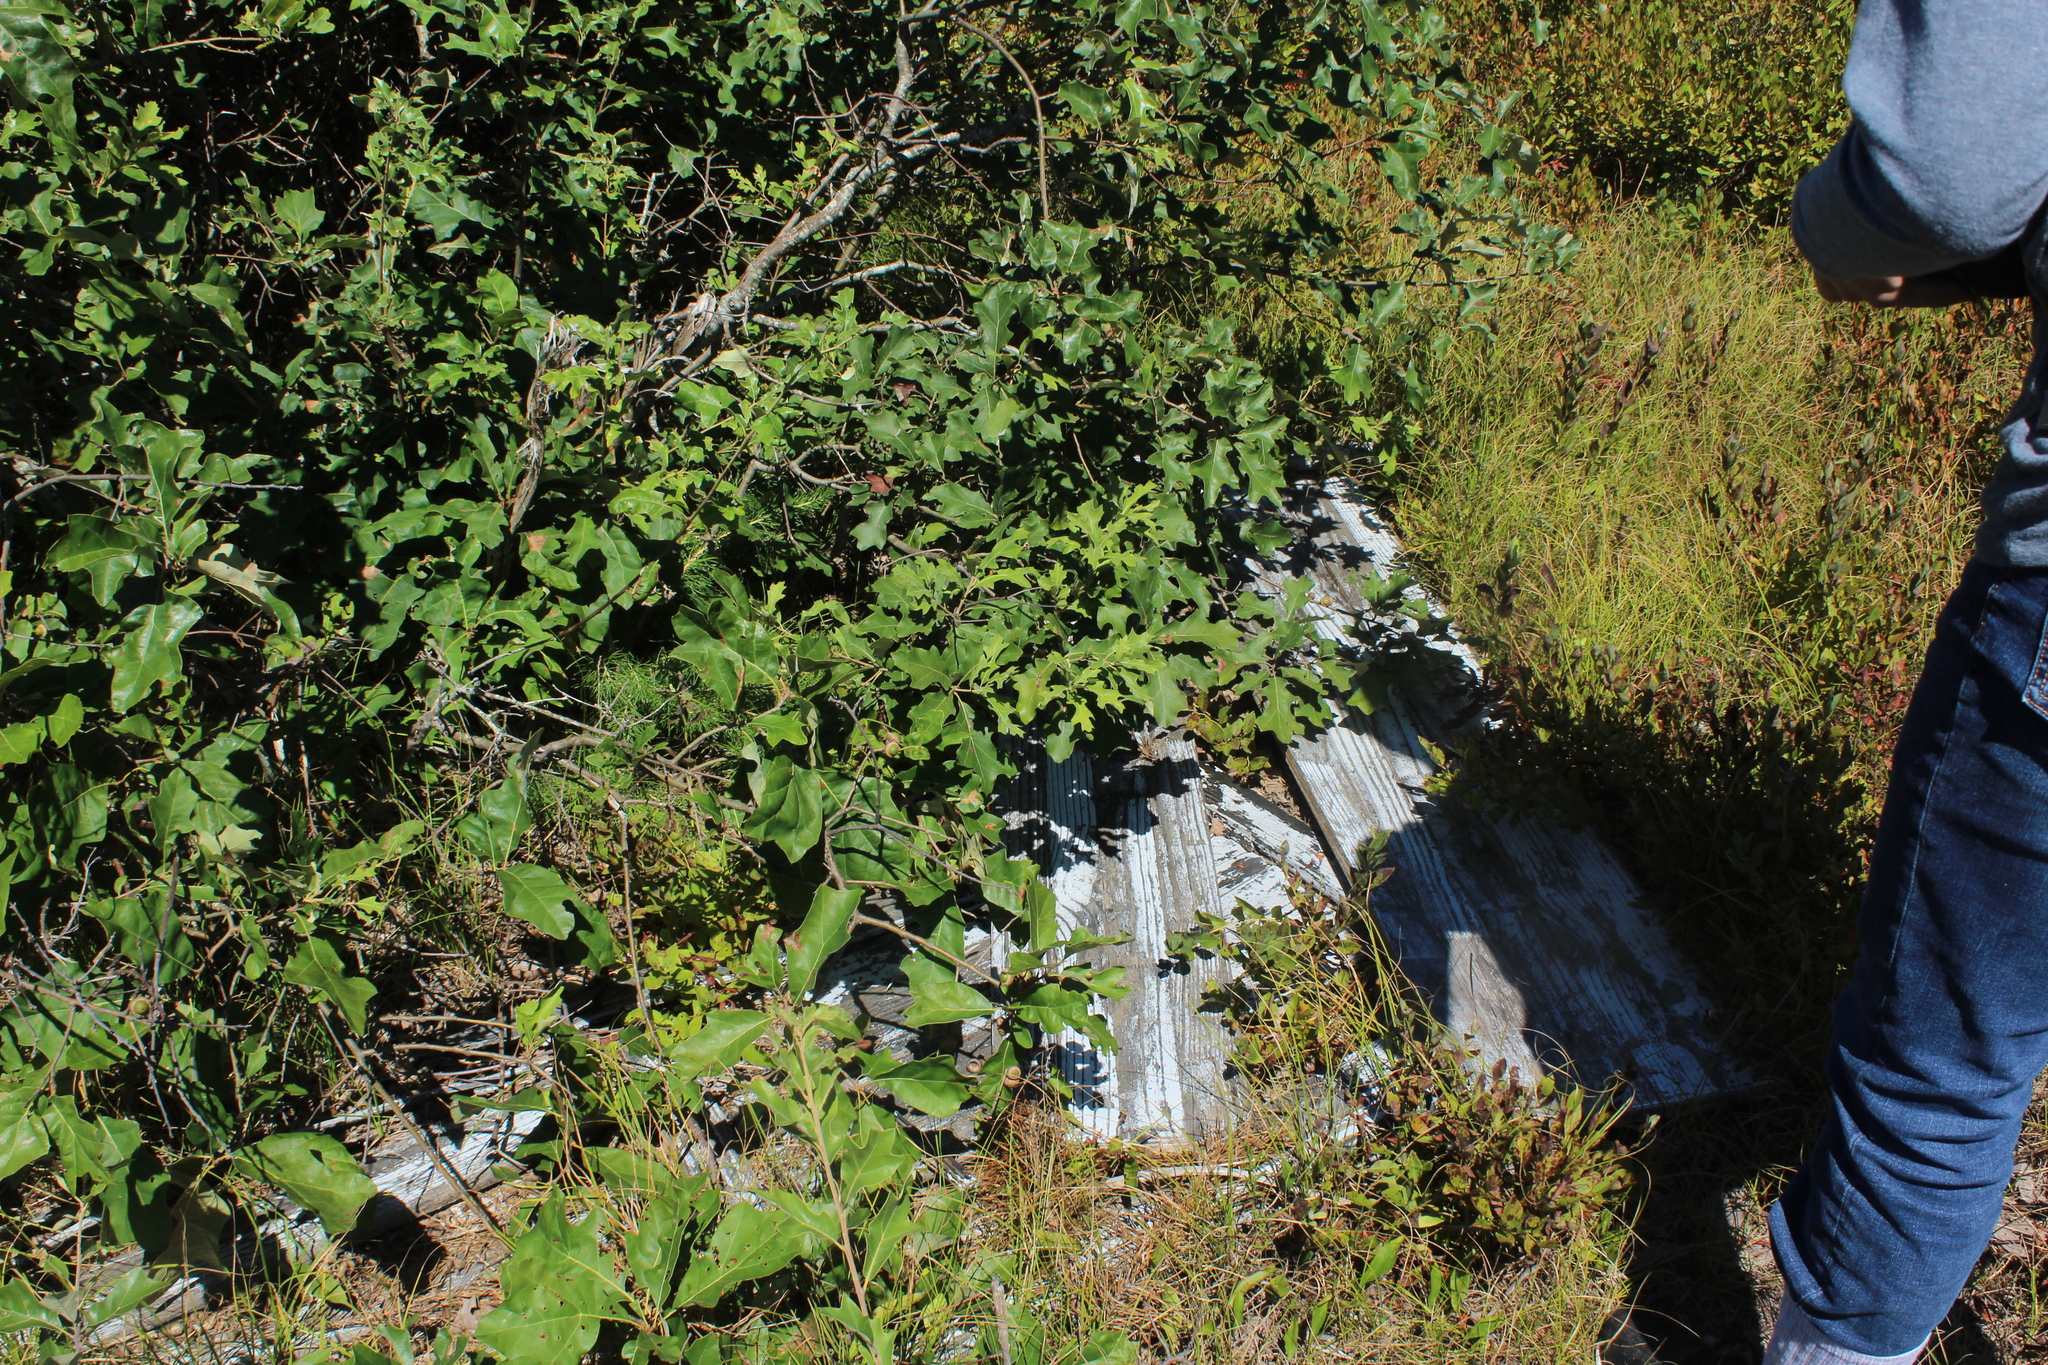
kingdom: Plantae
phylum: Tracheophyta
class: Magnoliopsida
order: Fagales
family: Fagaceae
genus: Quercus
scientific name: Quercus ilicifolia
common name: Bear oak
